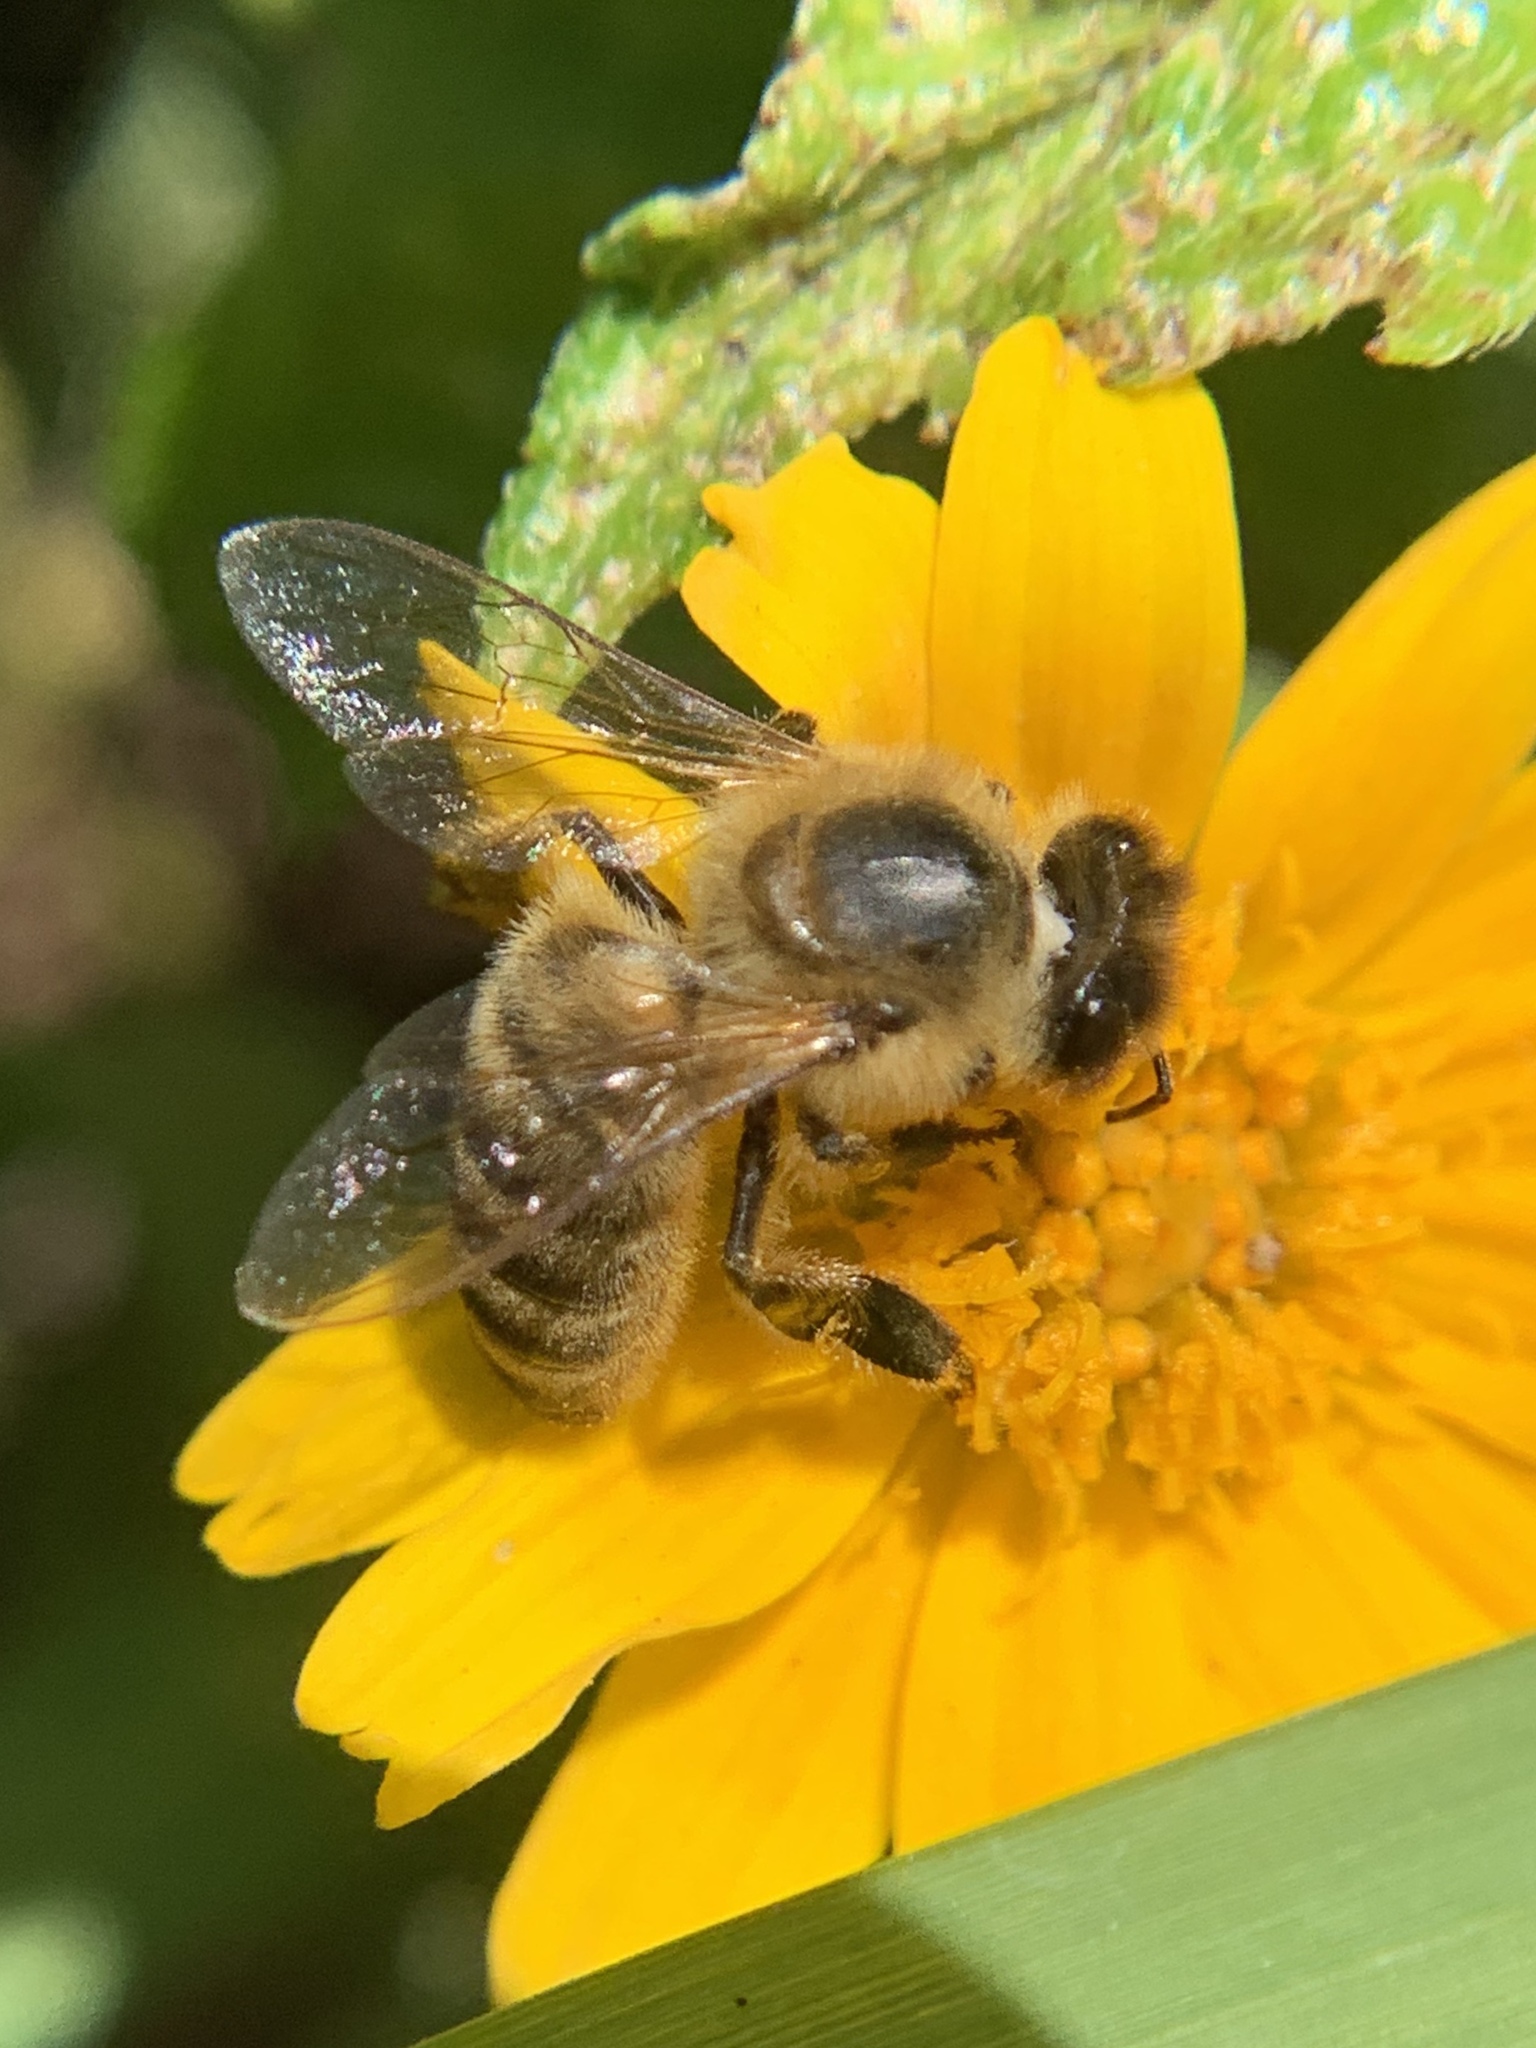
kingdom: Animalia
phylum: Arthropoda
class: Insecta
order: Hymenoptera
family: Apidae
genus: Apis
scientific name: Apis mellifera
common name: Honey bee
